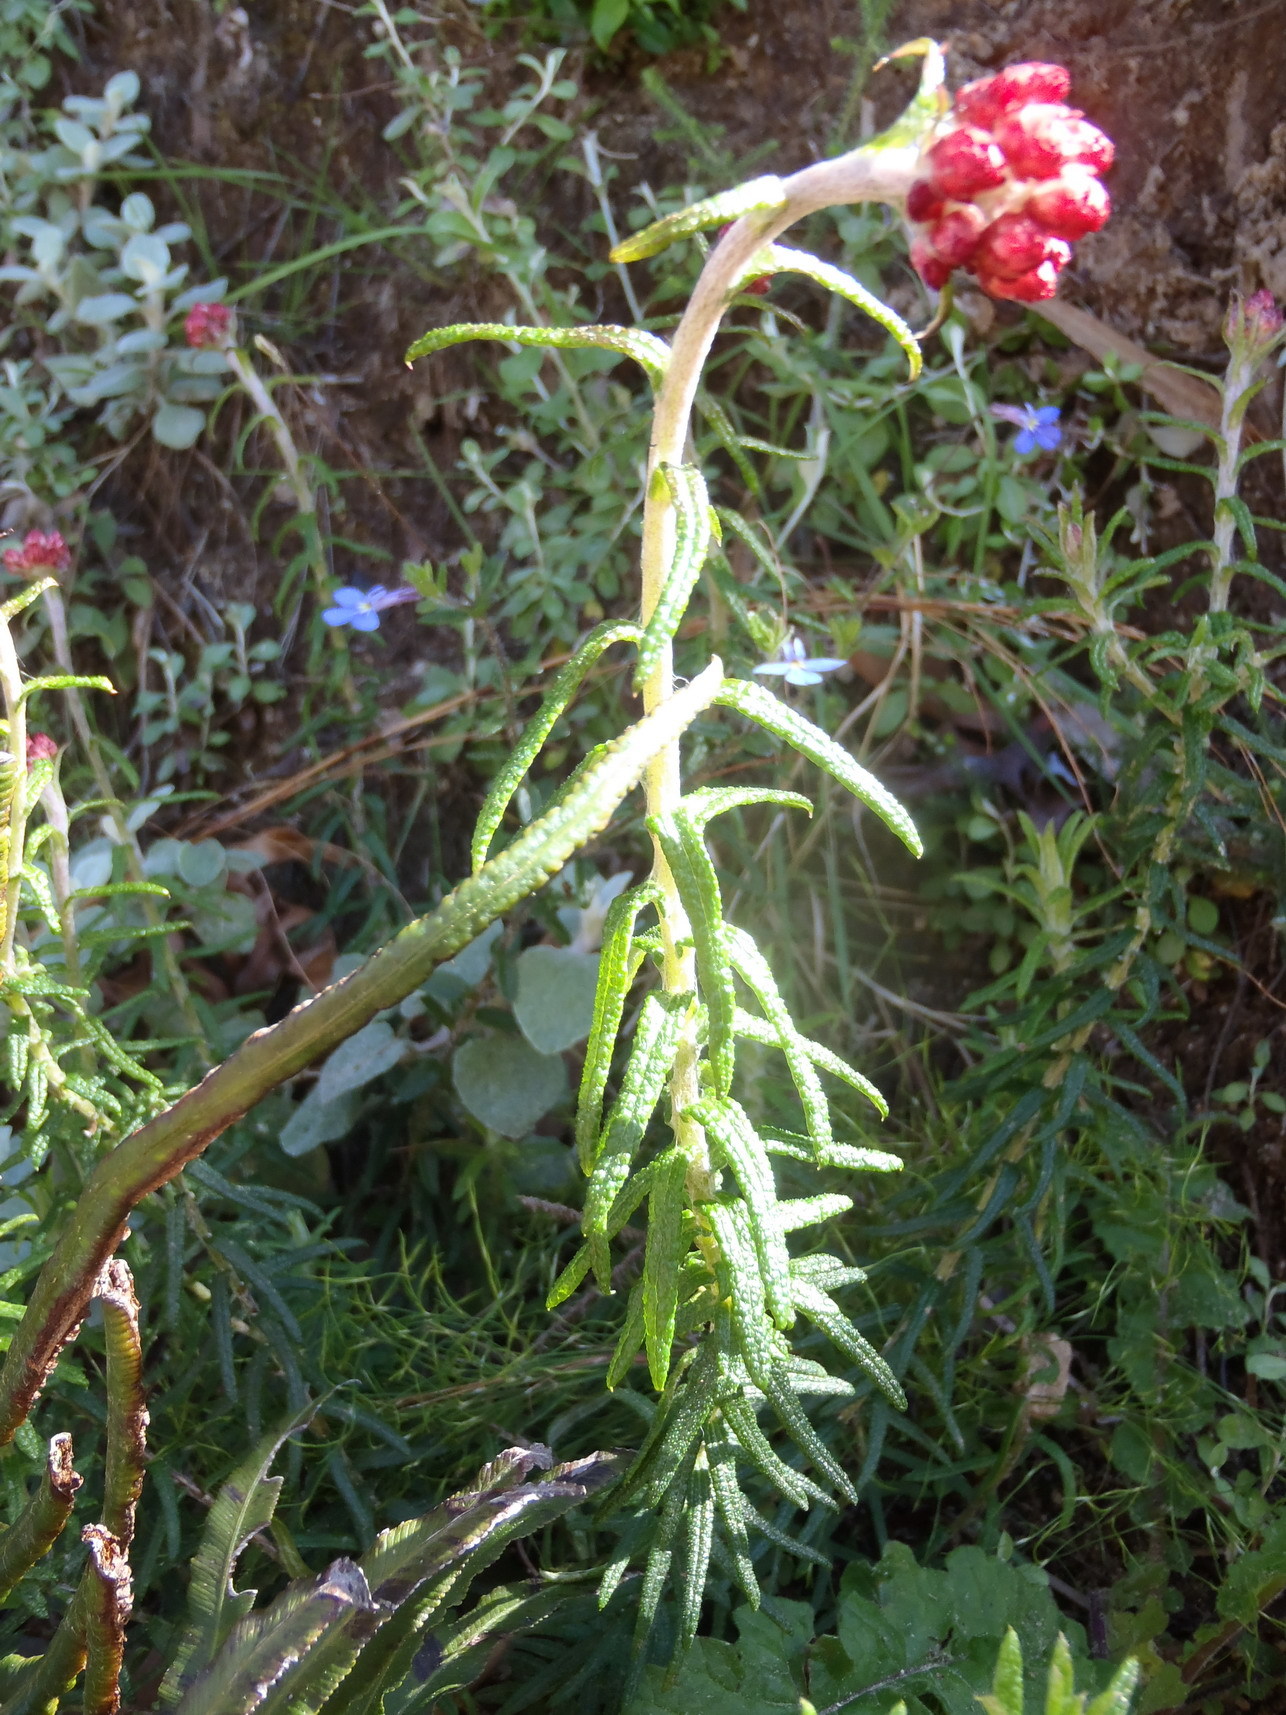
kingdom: Plantae
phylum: Tracheophyta
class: Magnoliopsida
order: Asterales
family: Asteraceae
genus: Helichrysum
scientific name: Helichrysum felinum
